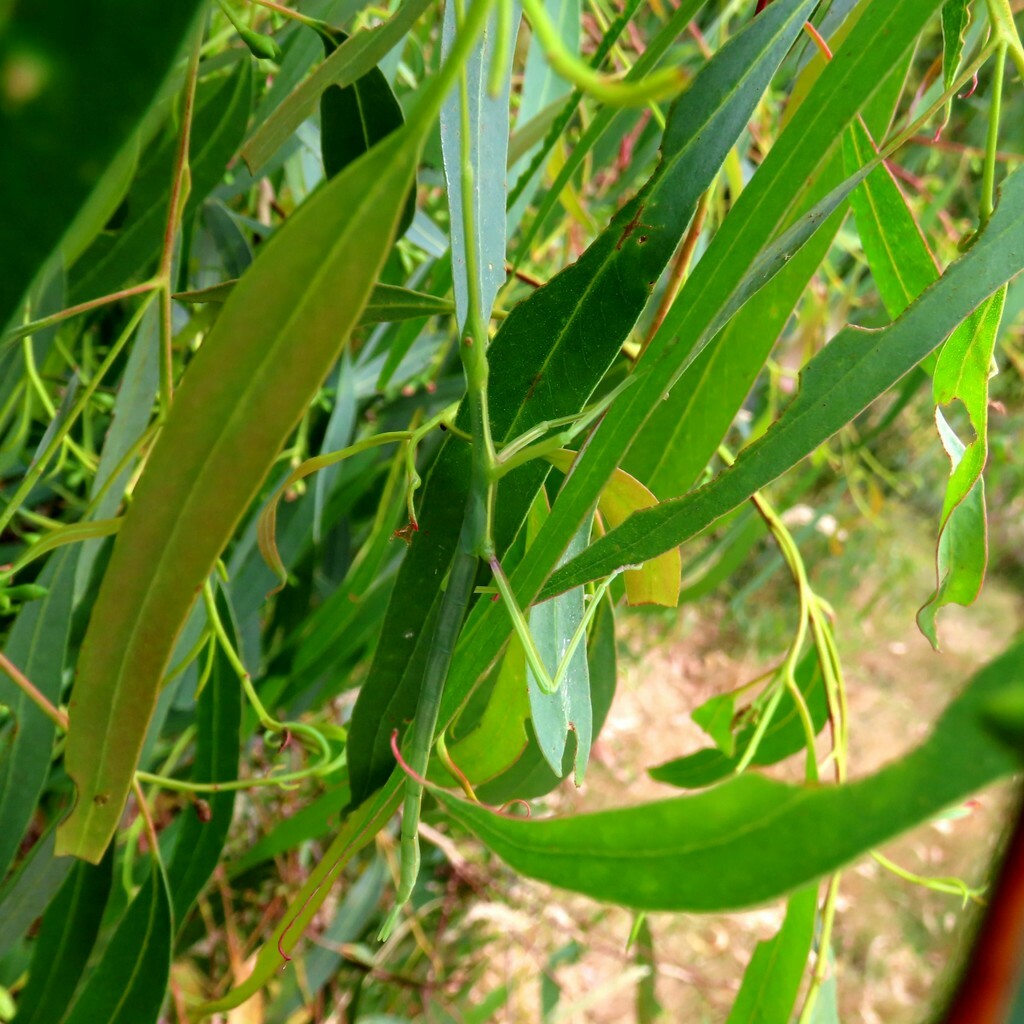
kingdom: Animalia
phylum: Arthropoda
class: Insecta
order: Phasmida
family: Phasmatidae
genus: Didymuria
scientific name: Didymuria violescens
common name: Spur-legged stick-insect
